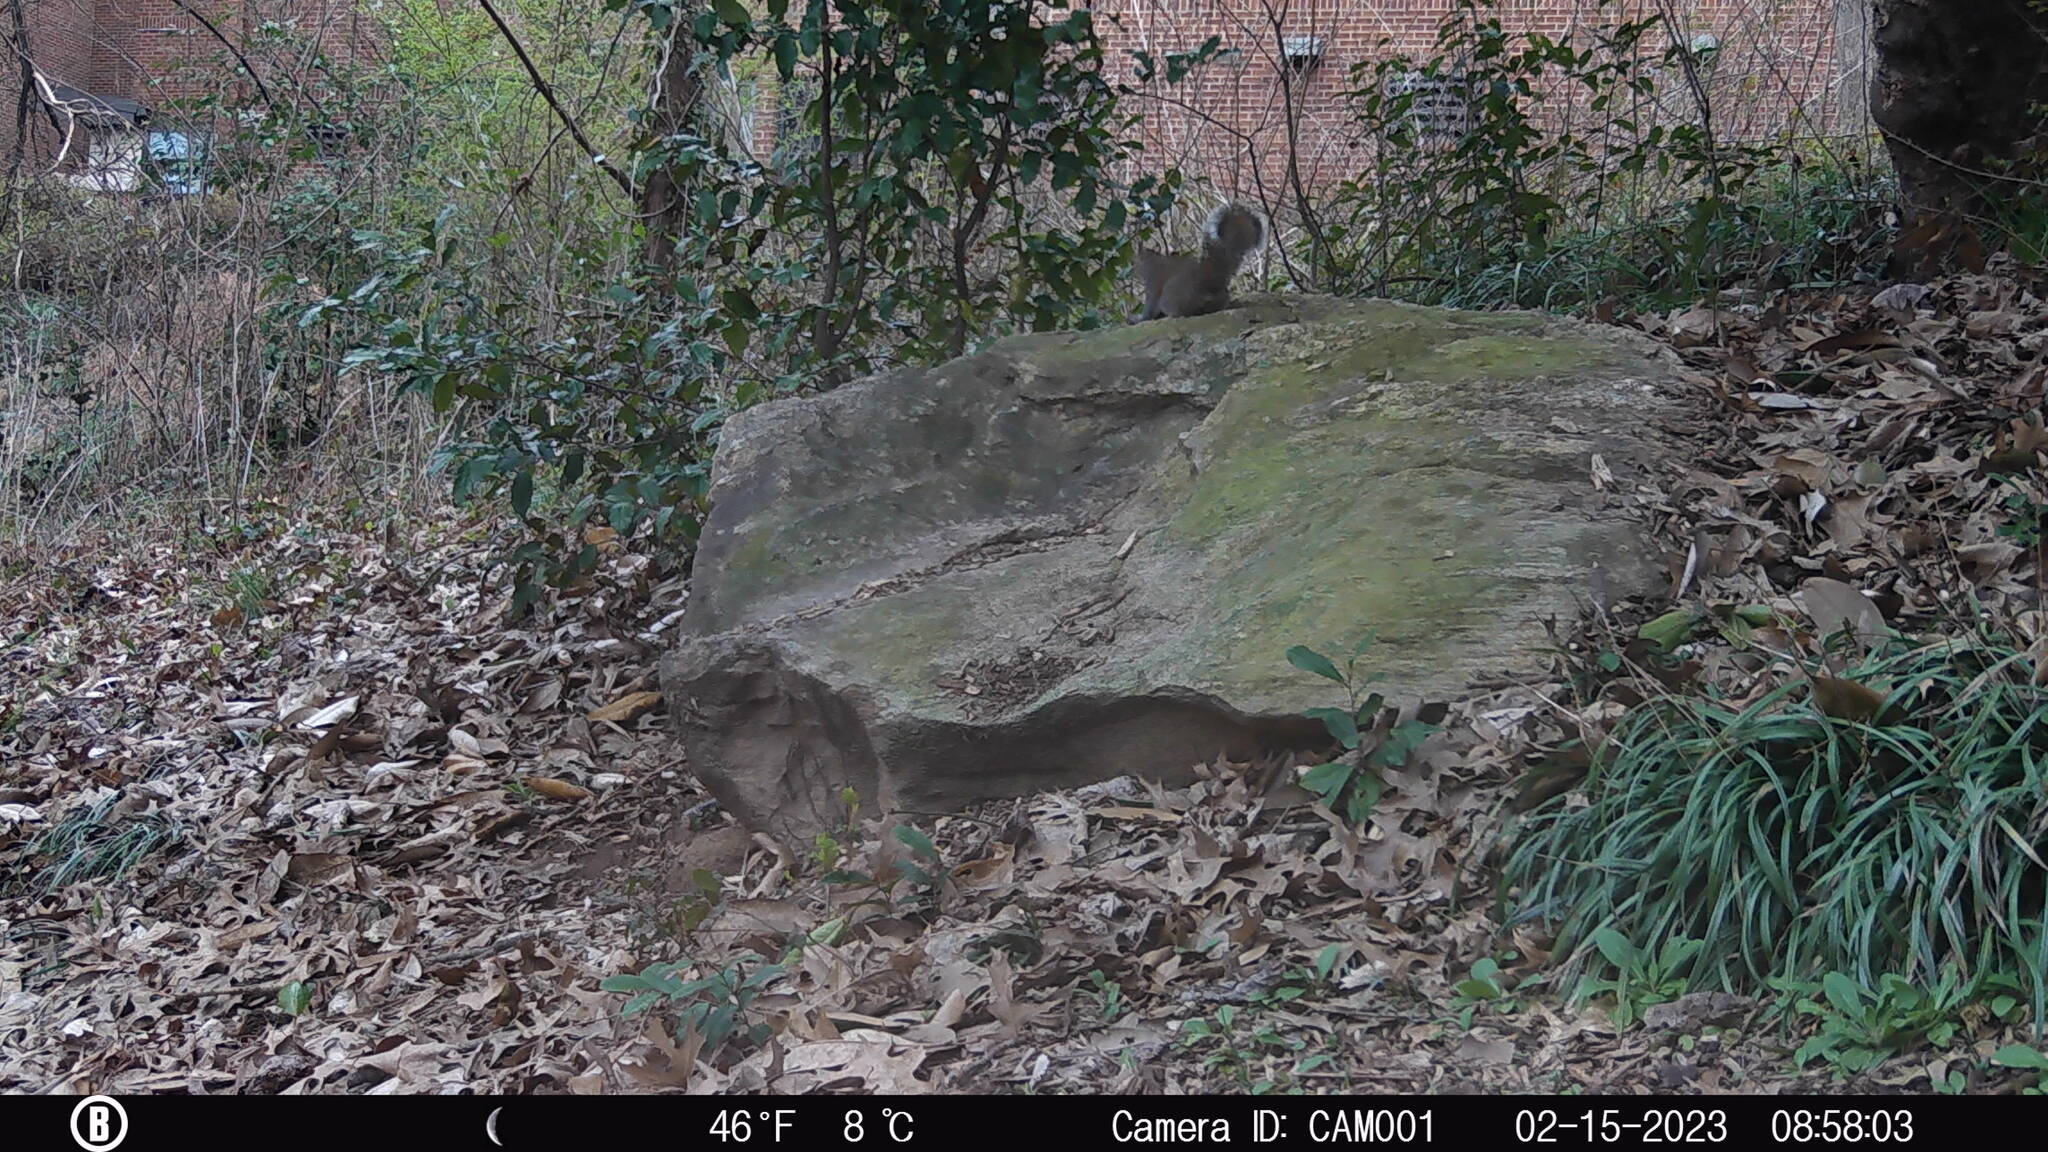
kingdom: Animalia
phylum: Chordata
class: Mammalia
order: Rodentia
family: Sciuridae
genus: Sciurus
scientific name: Sciurus carolinensis
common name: Eastern gray squirrel
